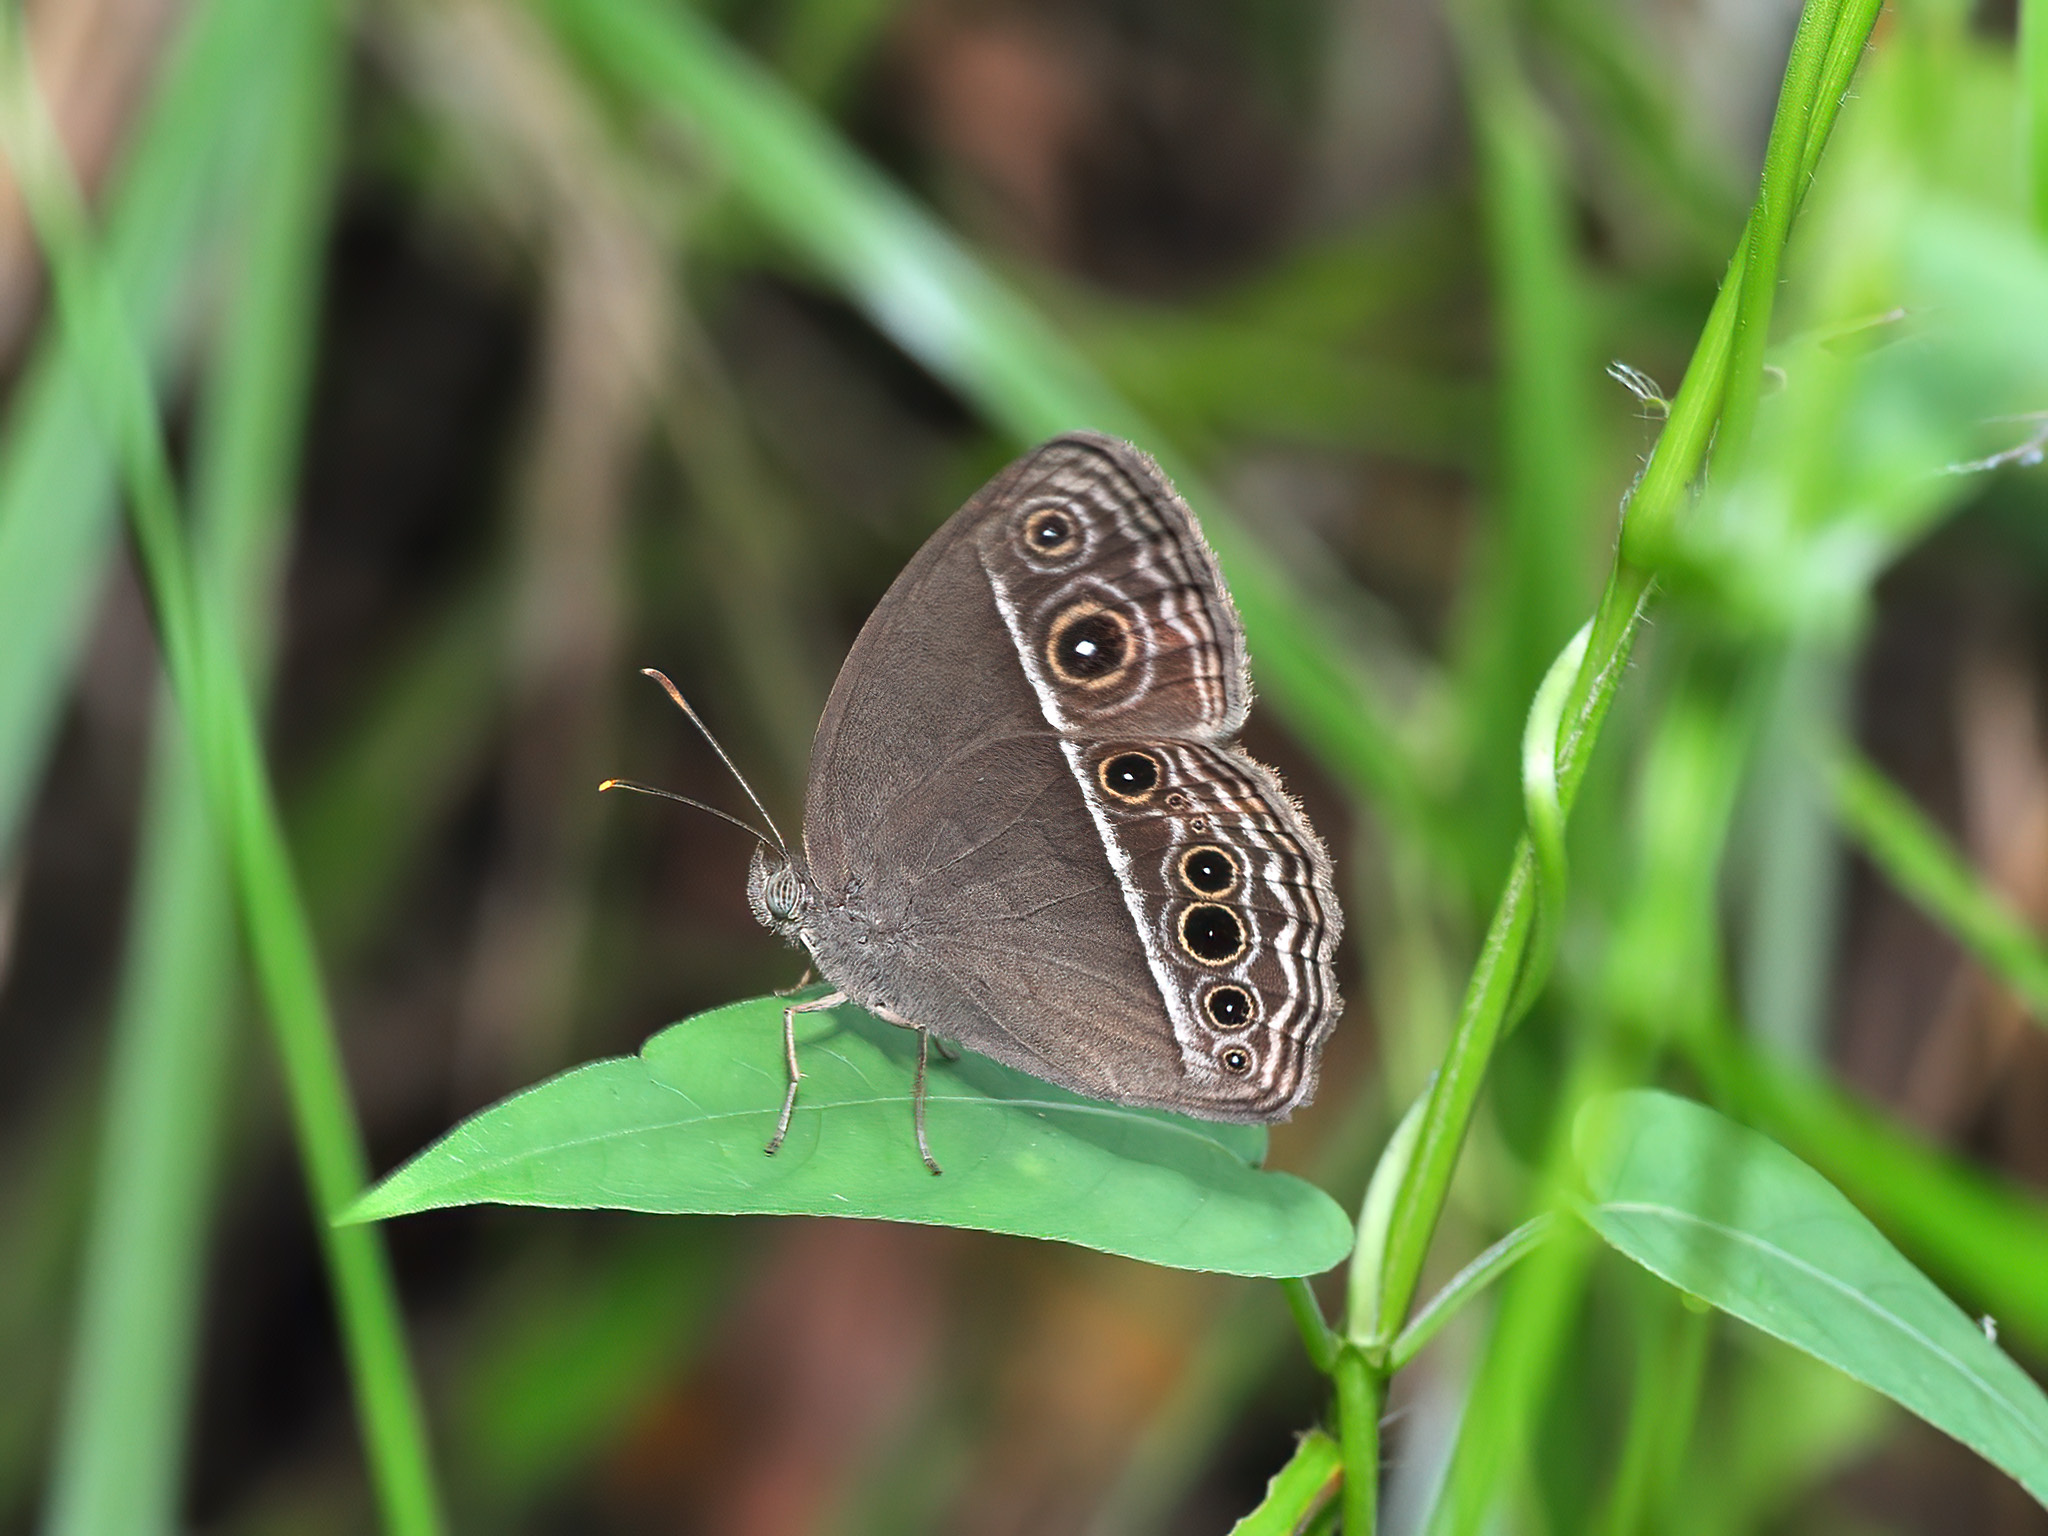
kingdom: Animalia
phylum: Arthropoda
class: Insecta
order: Lepidoptera
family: Nymphalidae
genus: Mycalesis
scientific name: Mycalesis mineus
